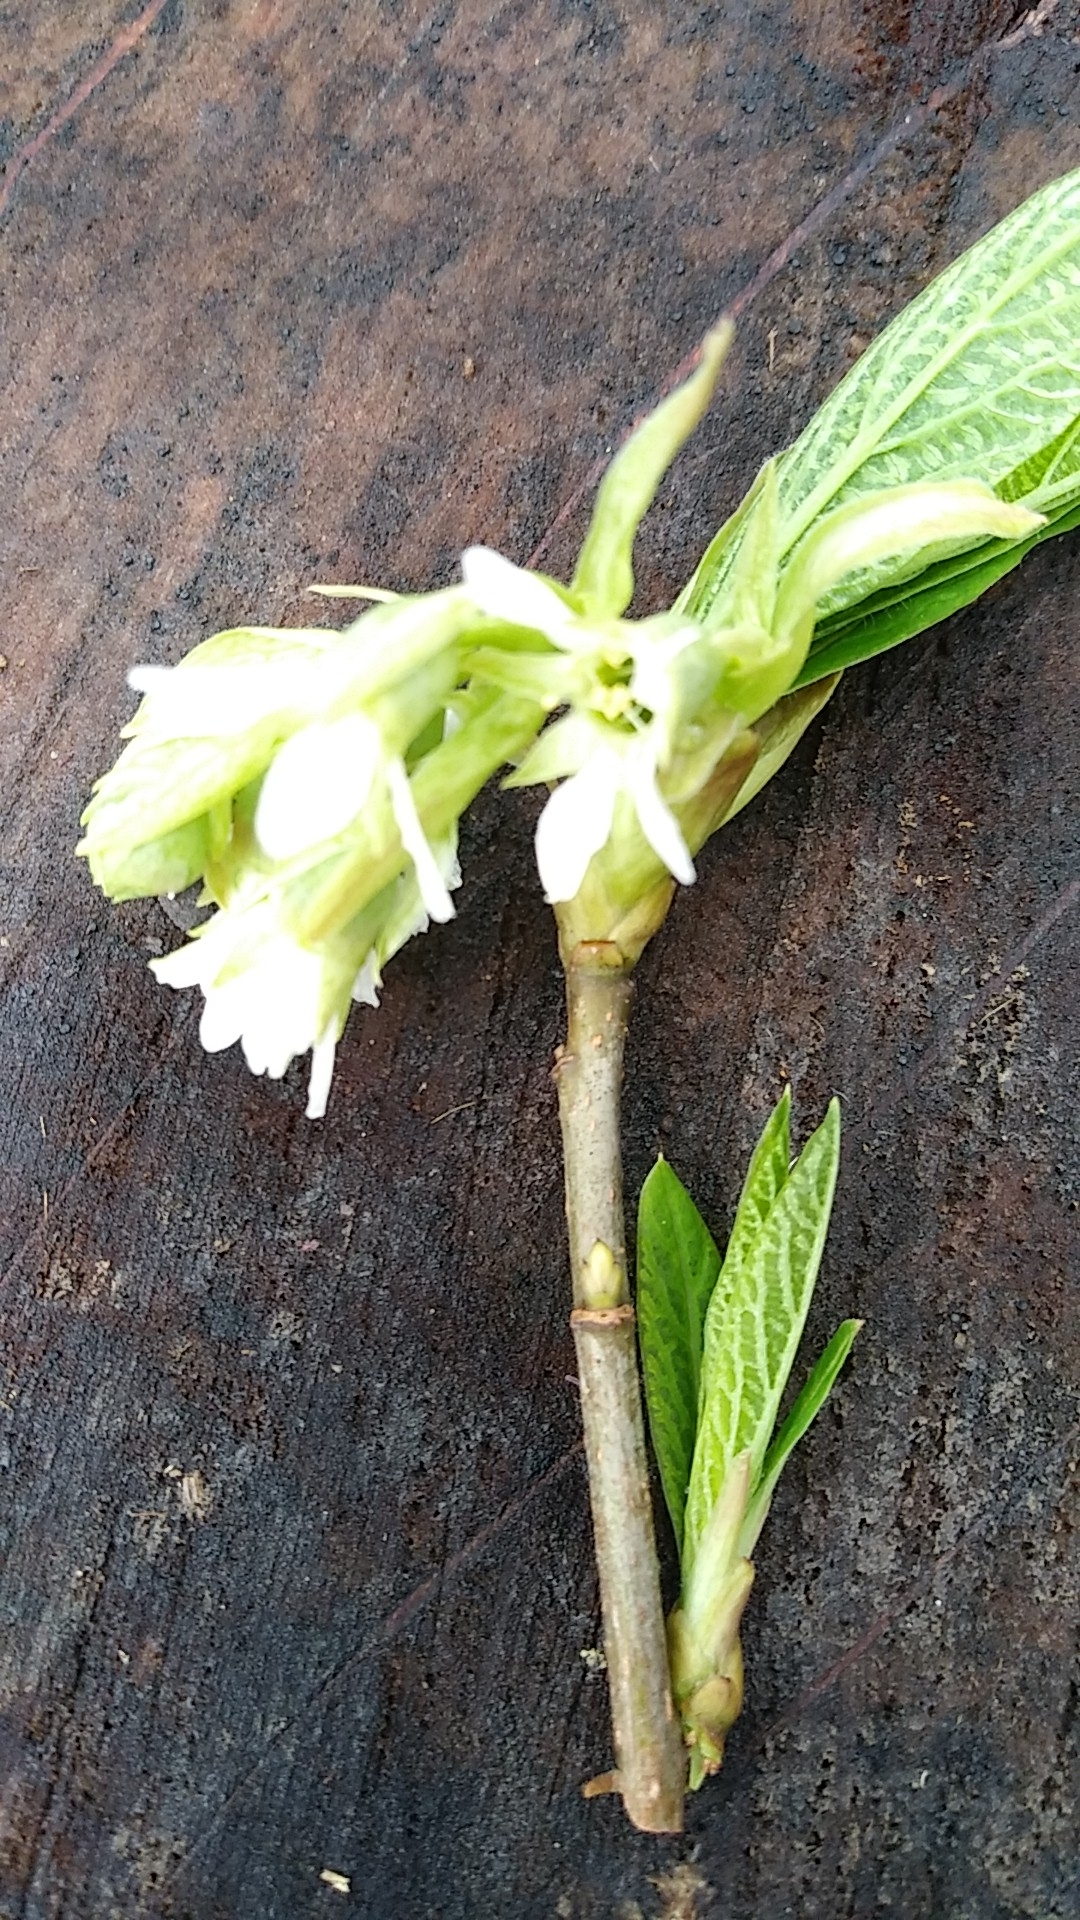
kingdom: Plantae
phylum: Tracheophyta
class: Magnoliopsida
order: Rosales
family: Rosaceae
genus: Oemleria
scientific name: Oemleria cerasiformis
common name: Osoberry
